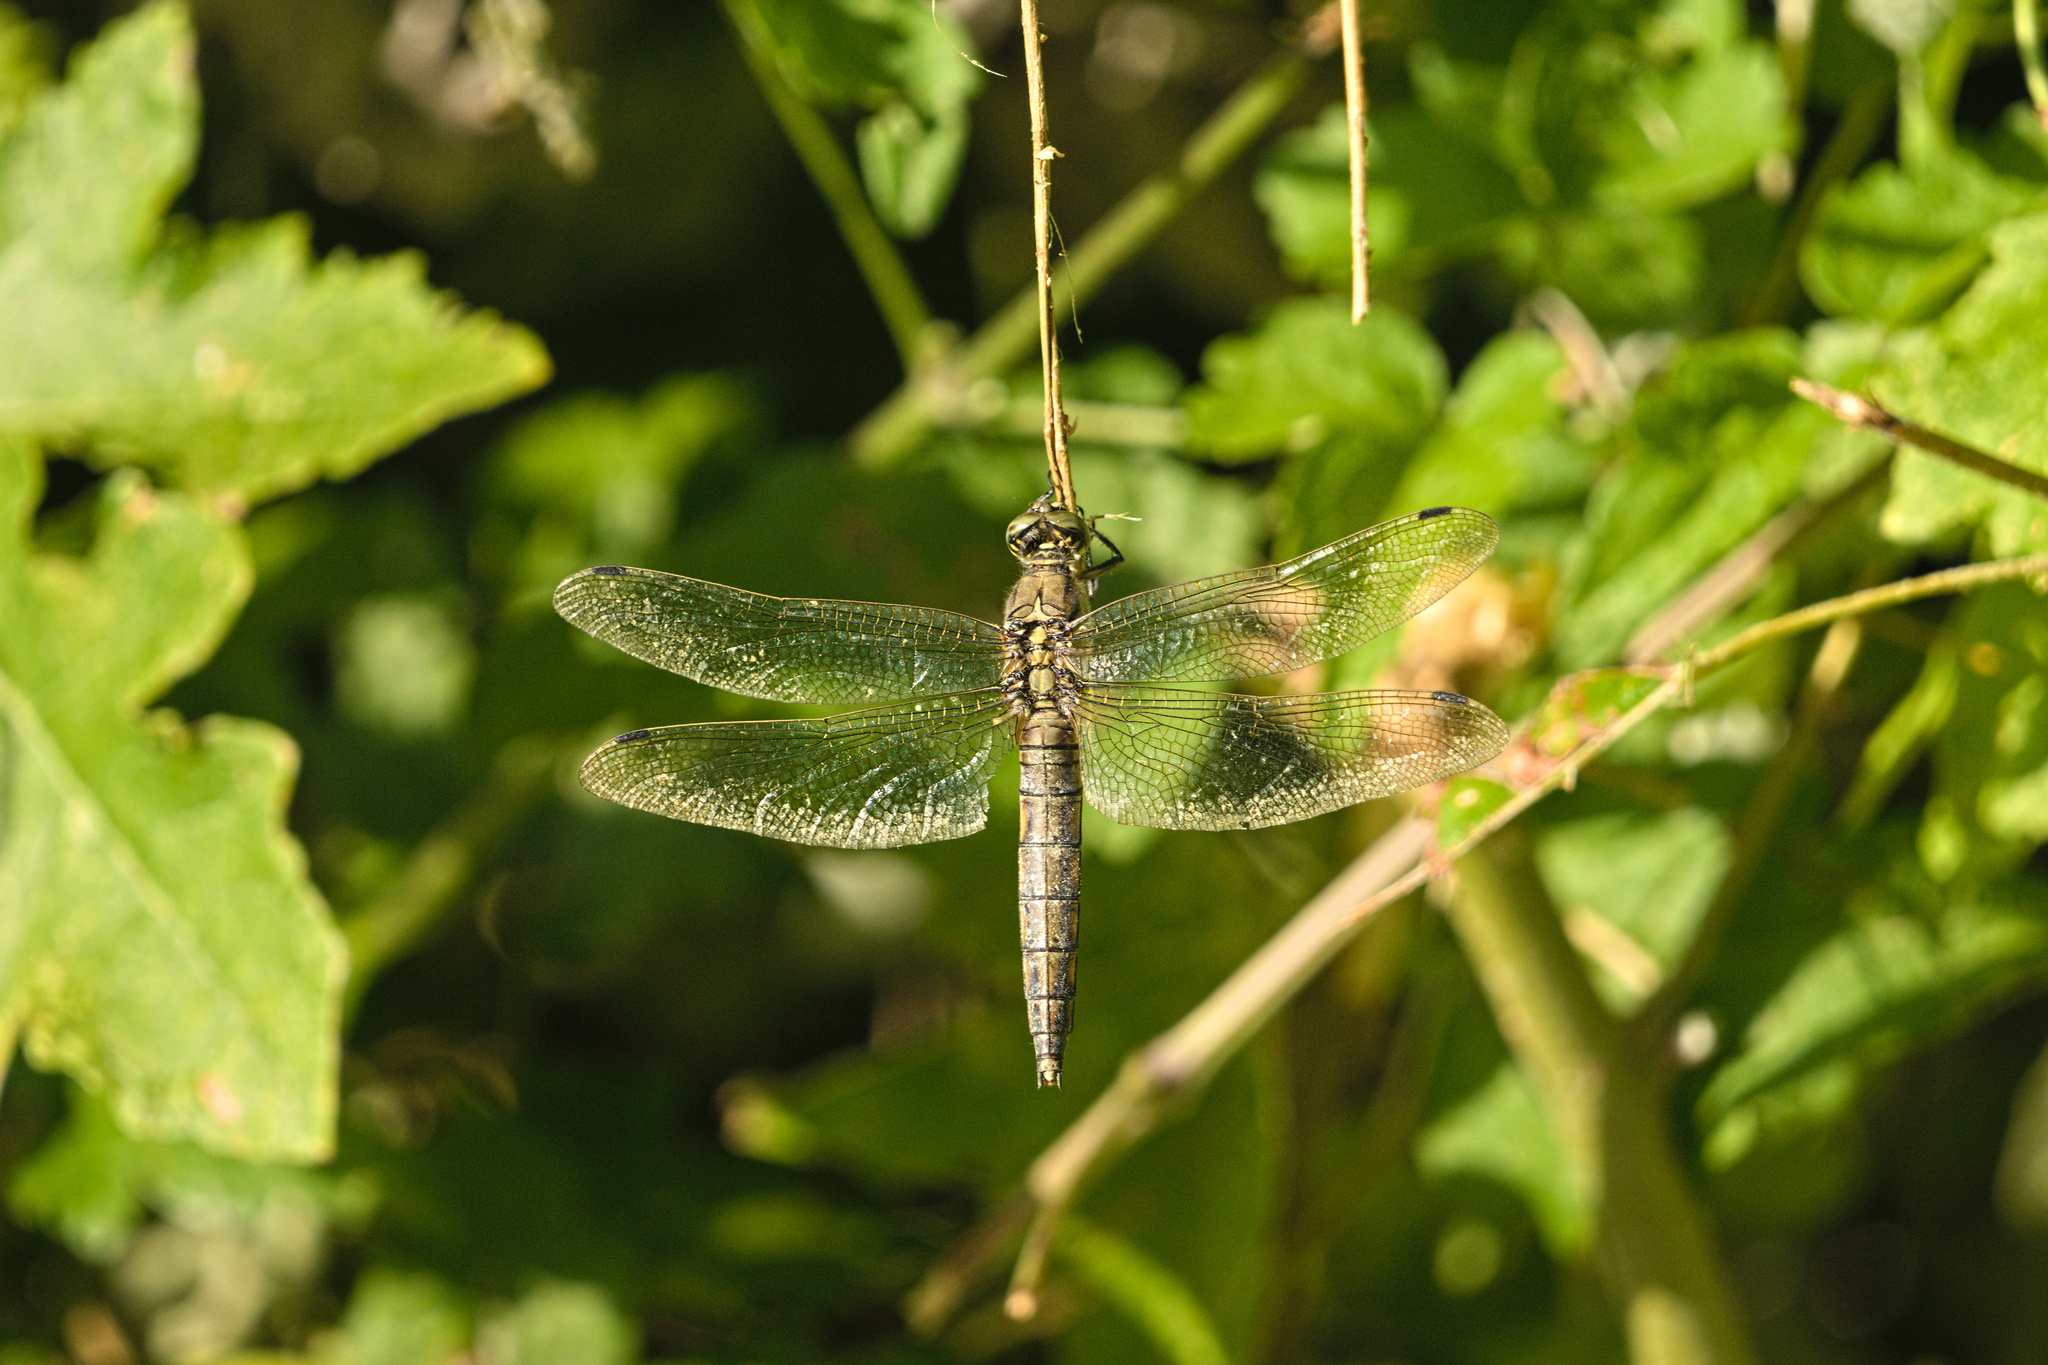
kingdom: Animalia
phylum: Arthropoda
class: Insecta
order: Odonata
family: Libellulidae
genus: Orthetrum
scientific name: Orthetrum cancellatum
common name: Black-tailed skimmer
